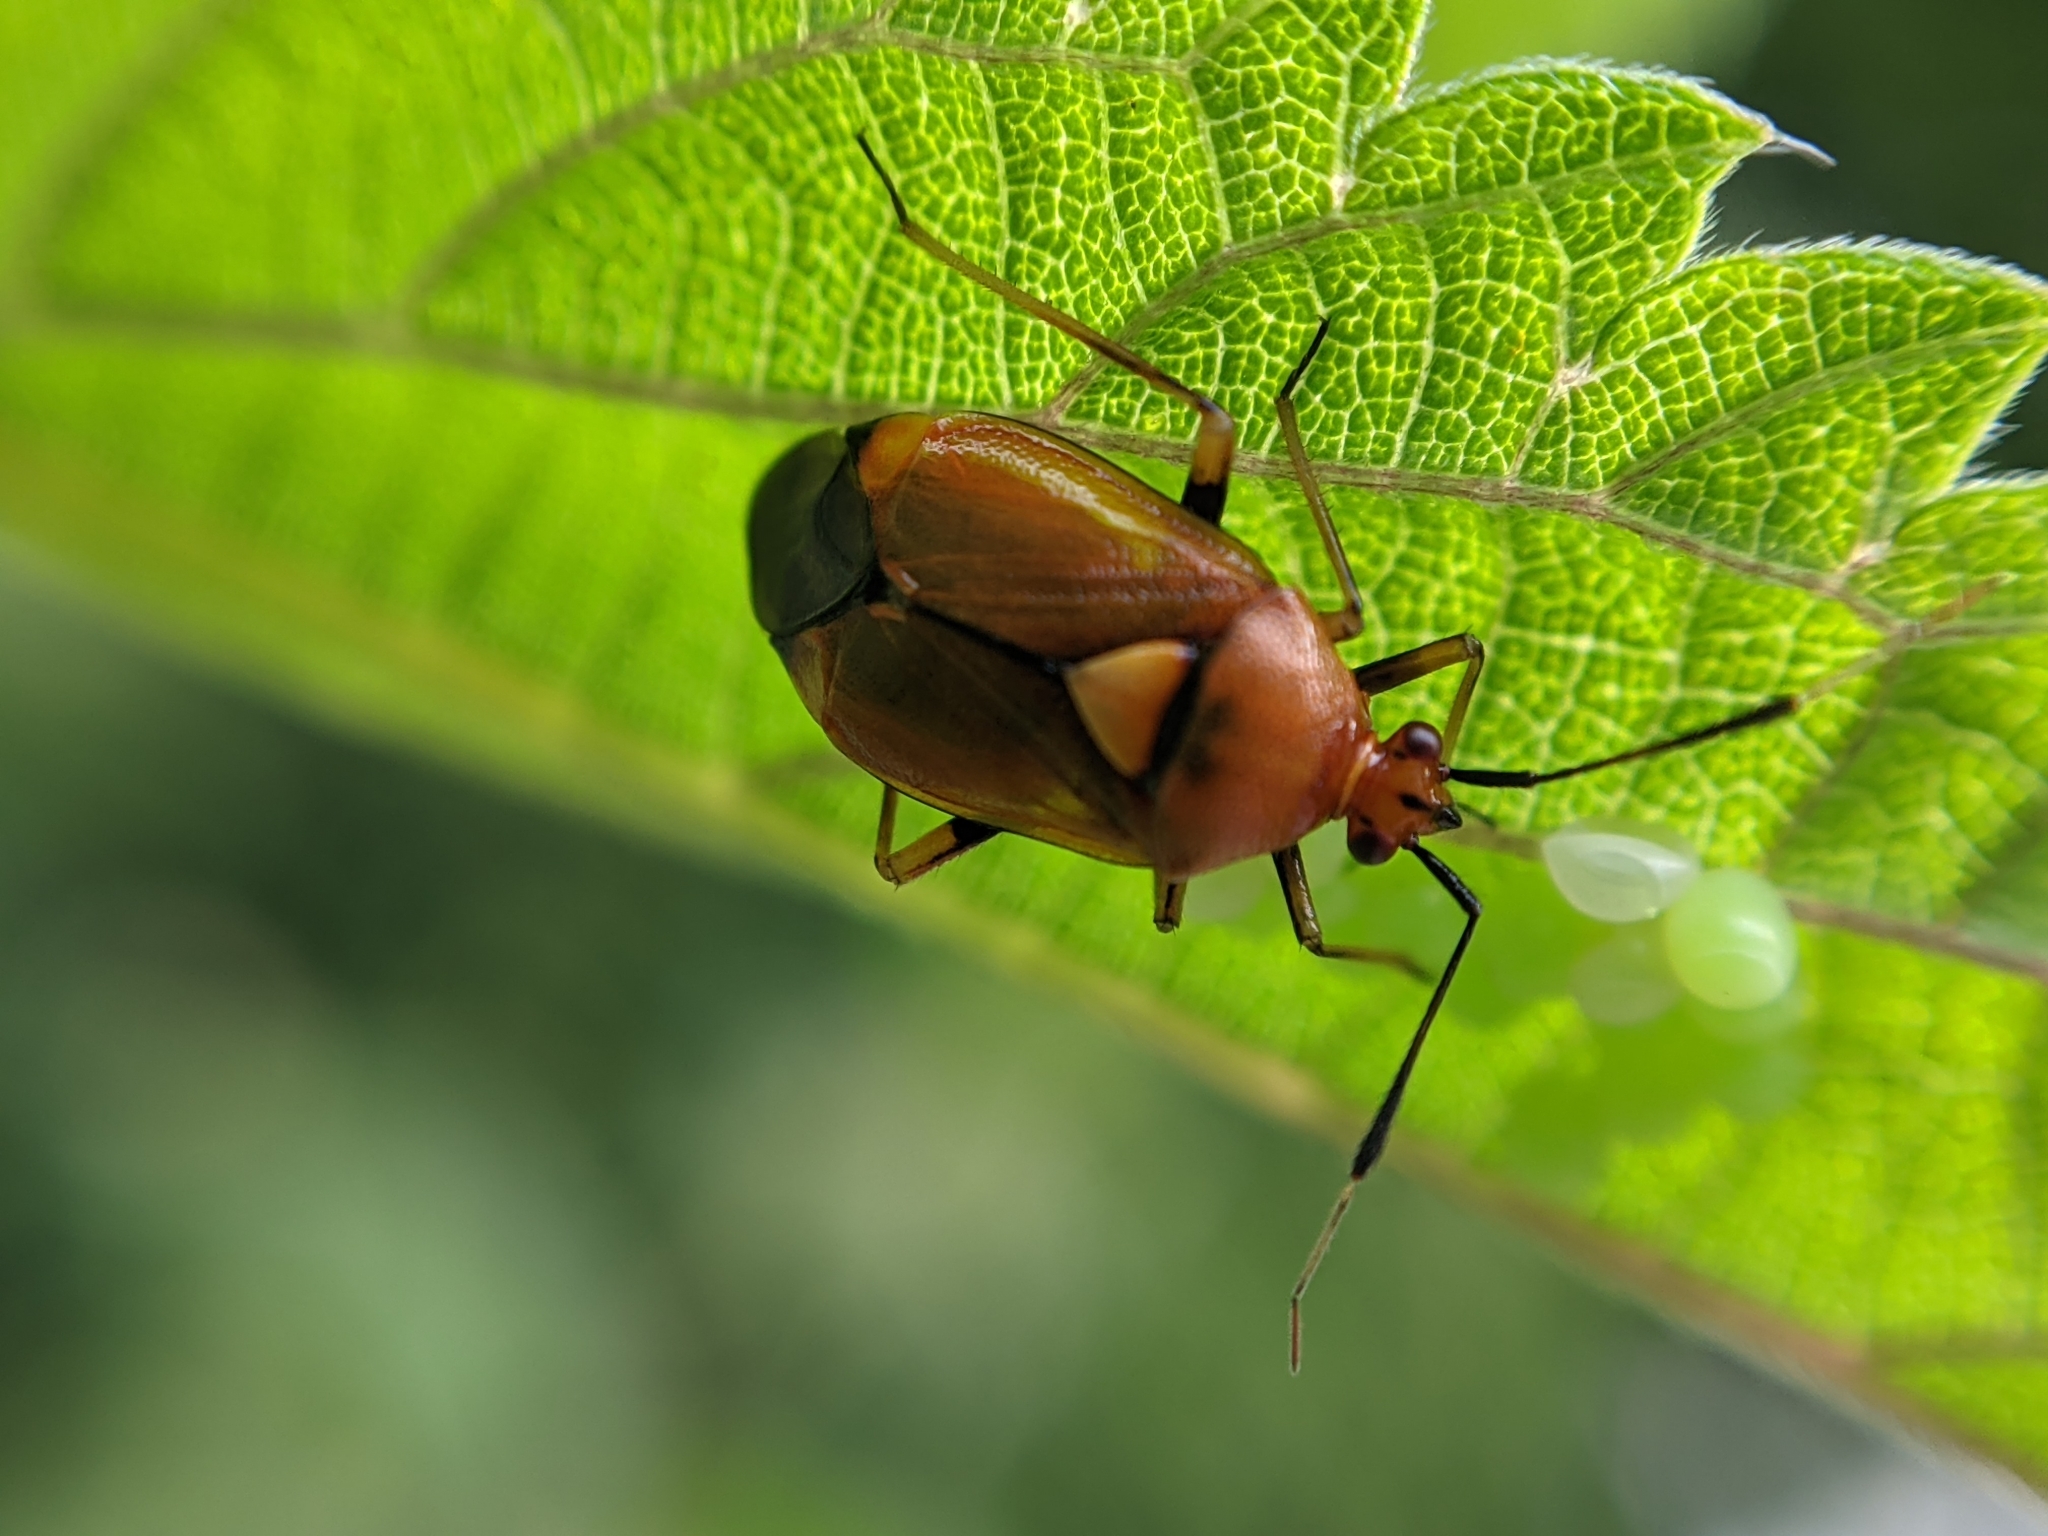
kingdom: Animalia
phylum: Arthropoda
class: Insecta
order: Hemiptera
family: Miridae
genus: Deraeocoris
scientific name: Deraeocoris ruber
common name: Plant bug
